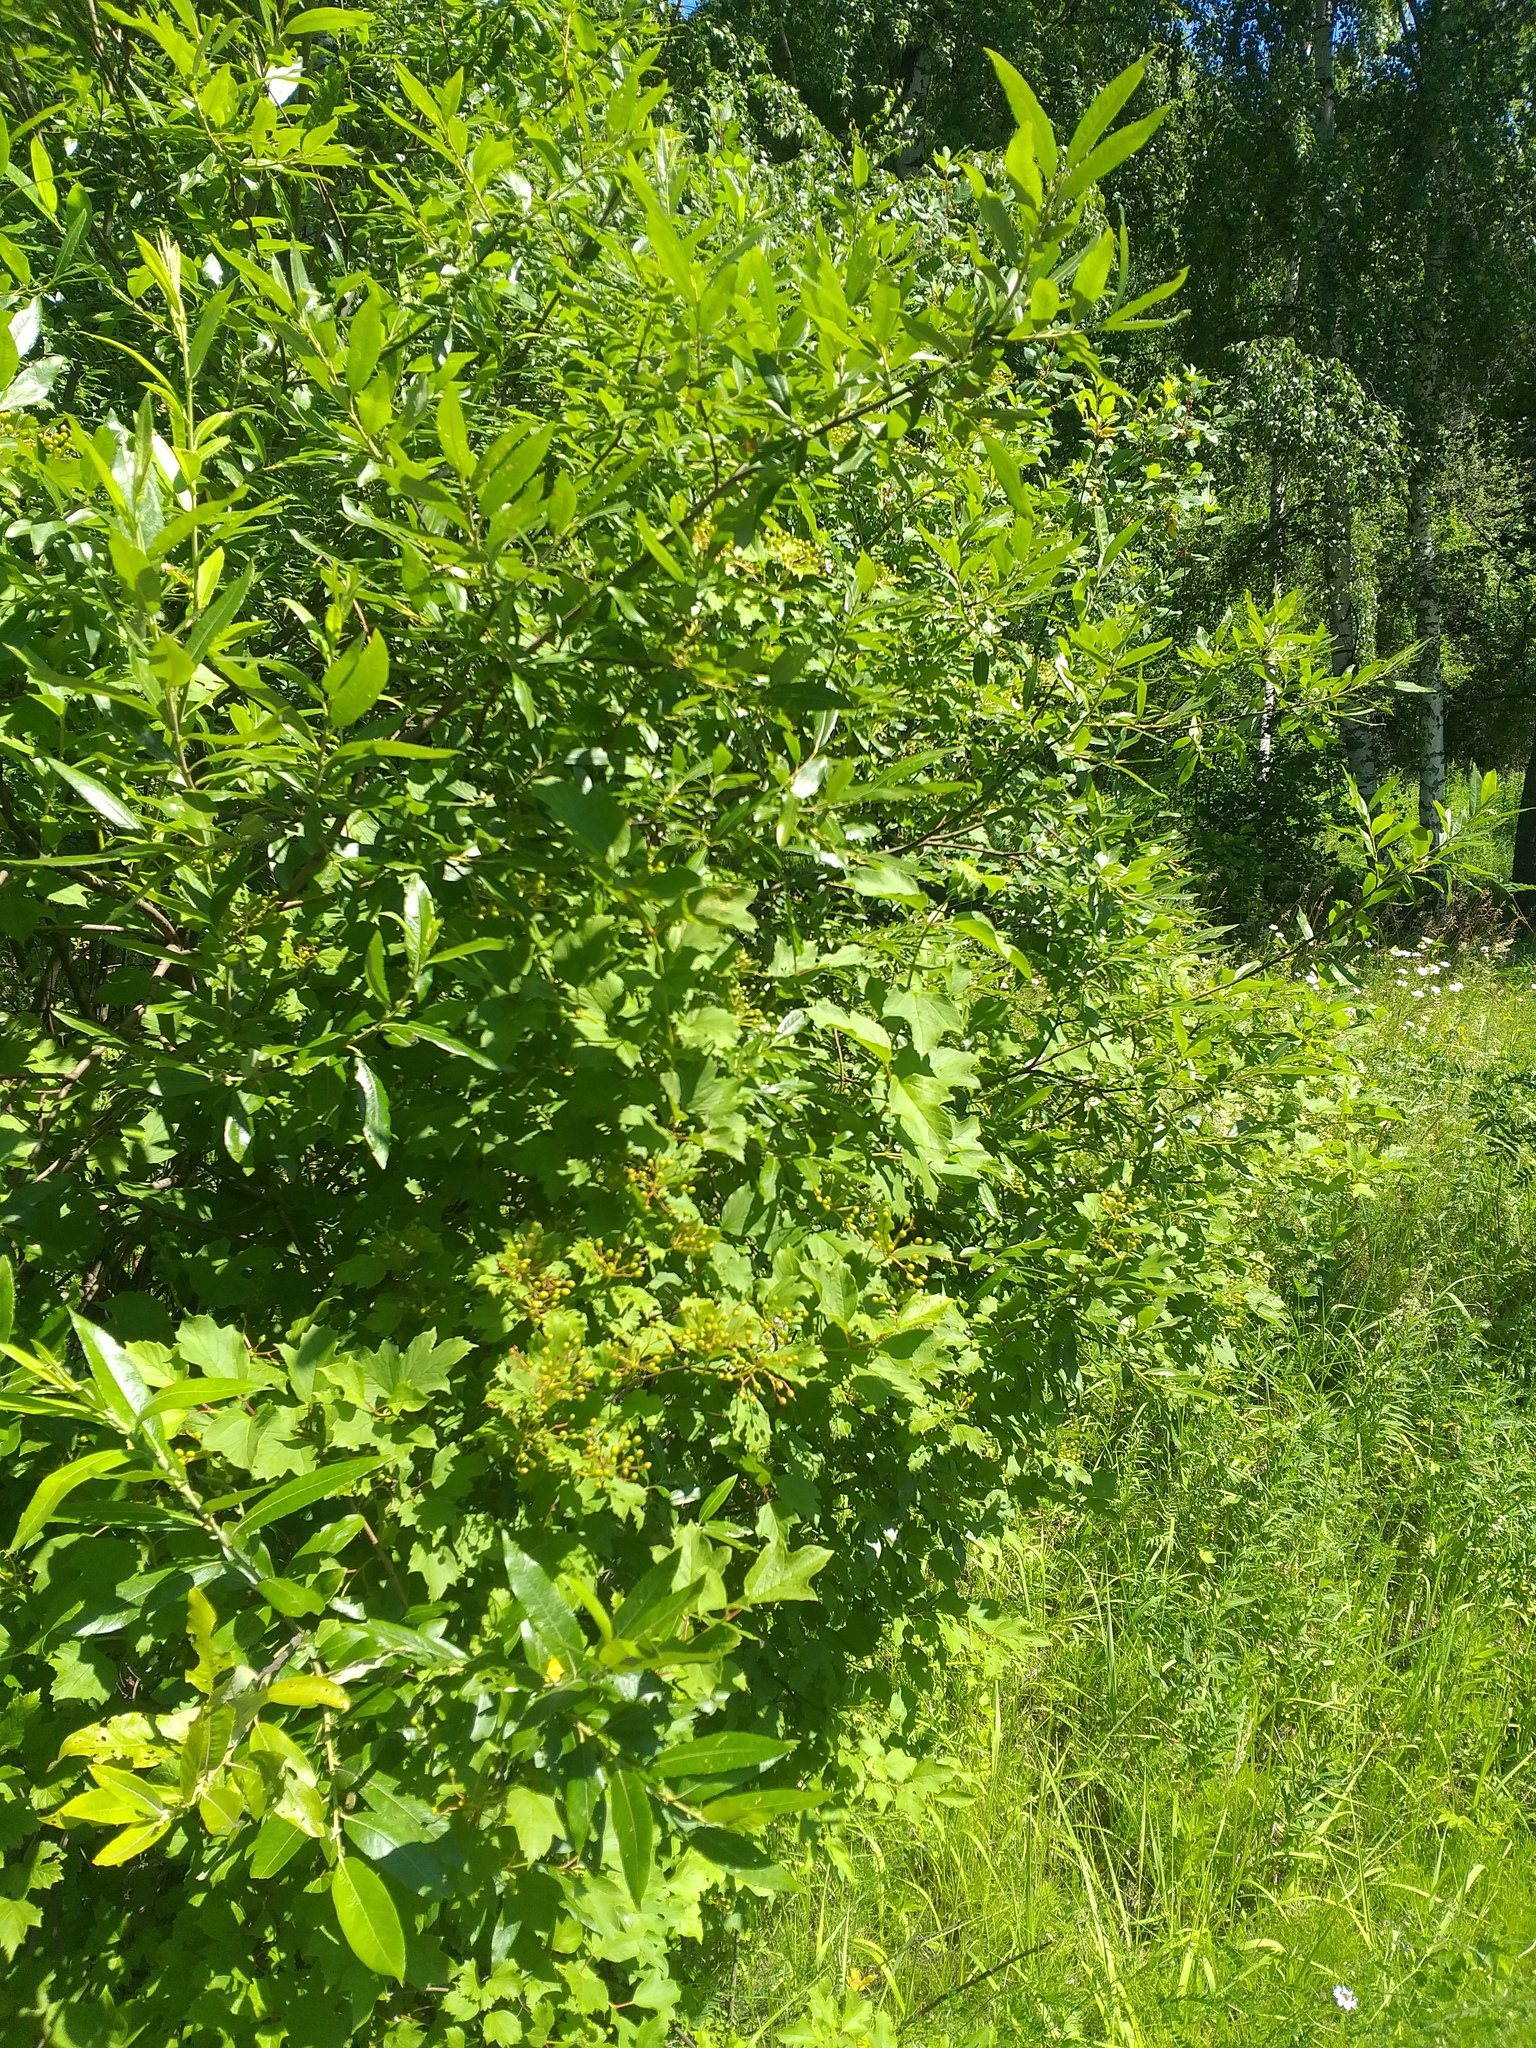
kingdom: Plantae
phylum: Tracheophyta
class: Magnoliopsida
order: Dipsacales
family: Viburnaceae
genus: Viburnum
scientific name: Viburnum opulus
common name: Guelder-rose
